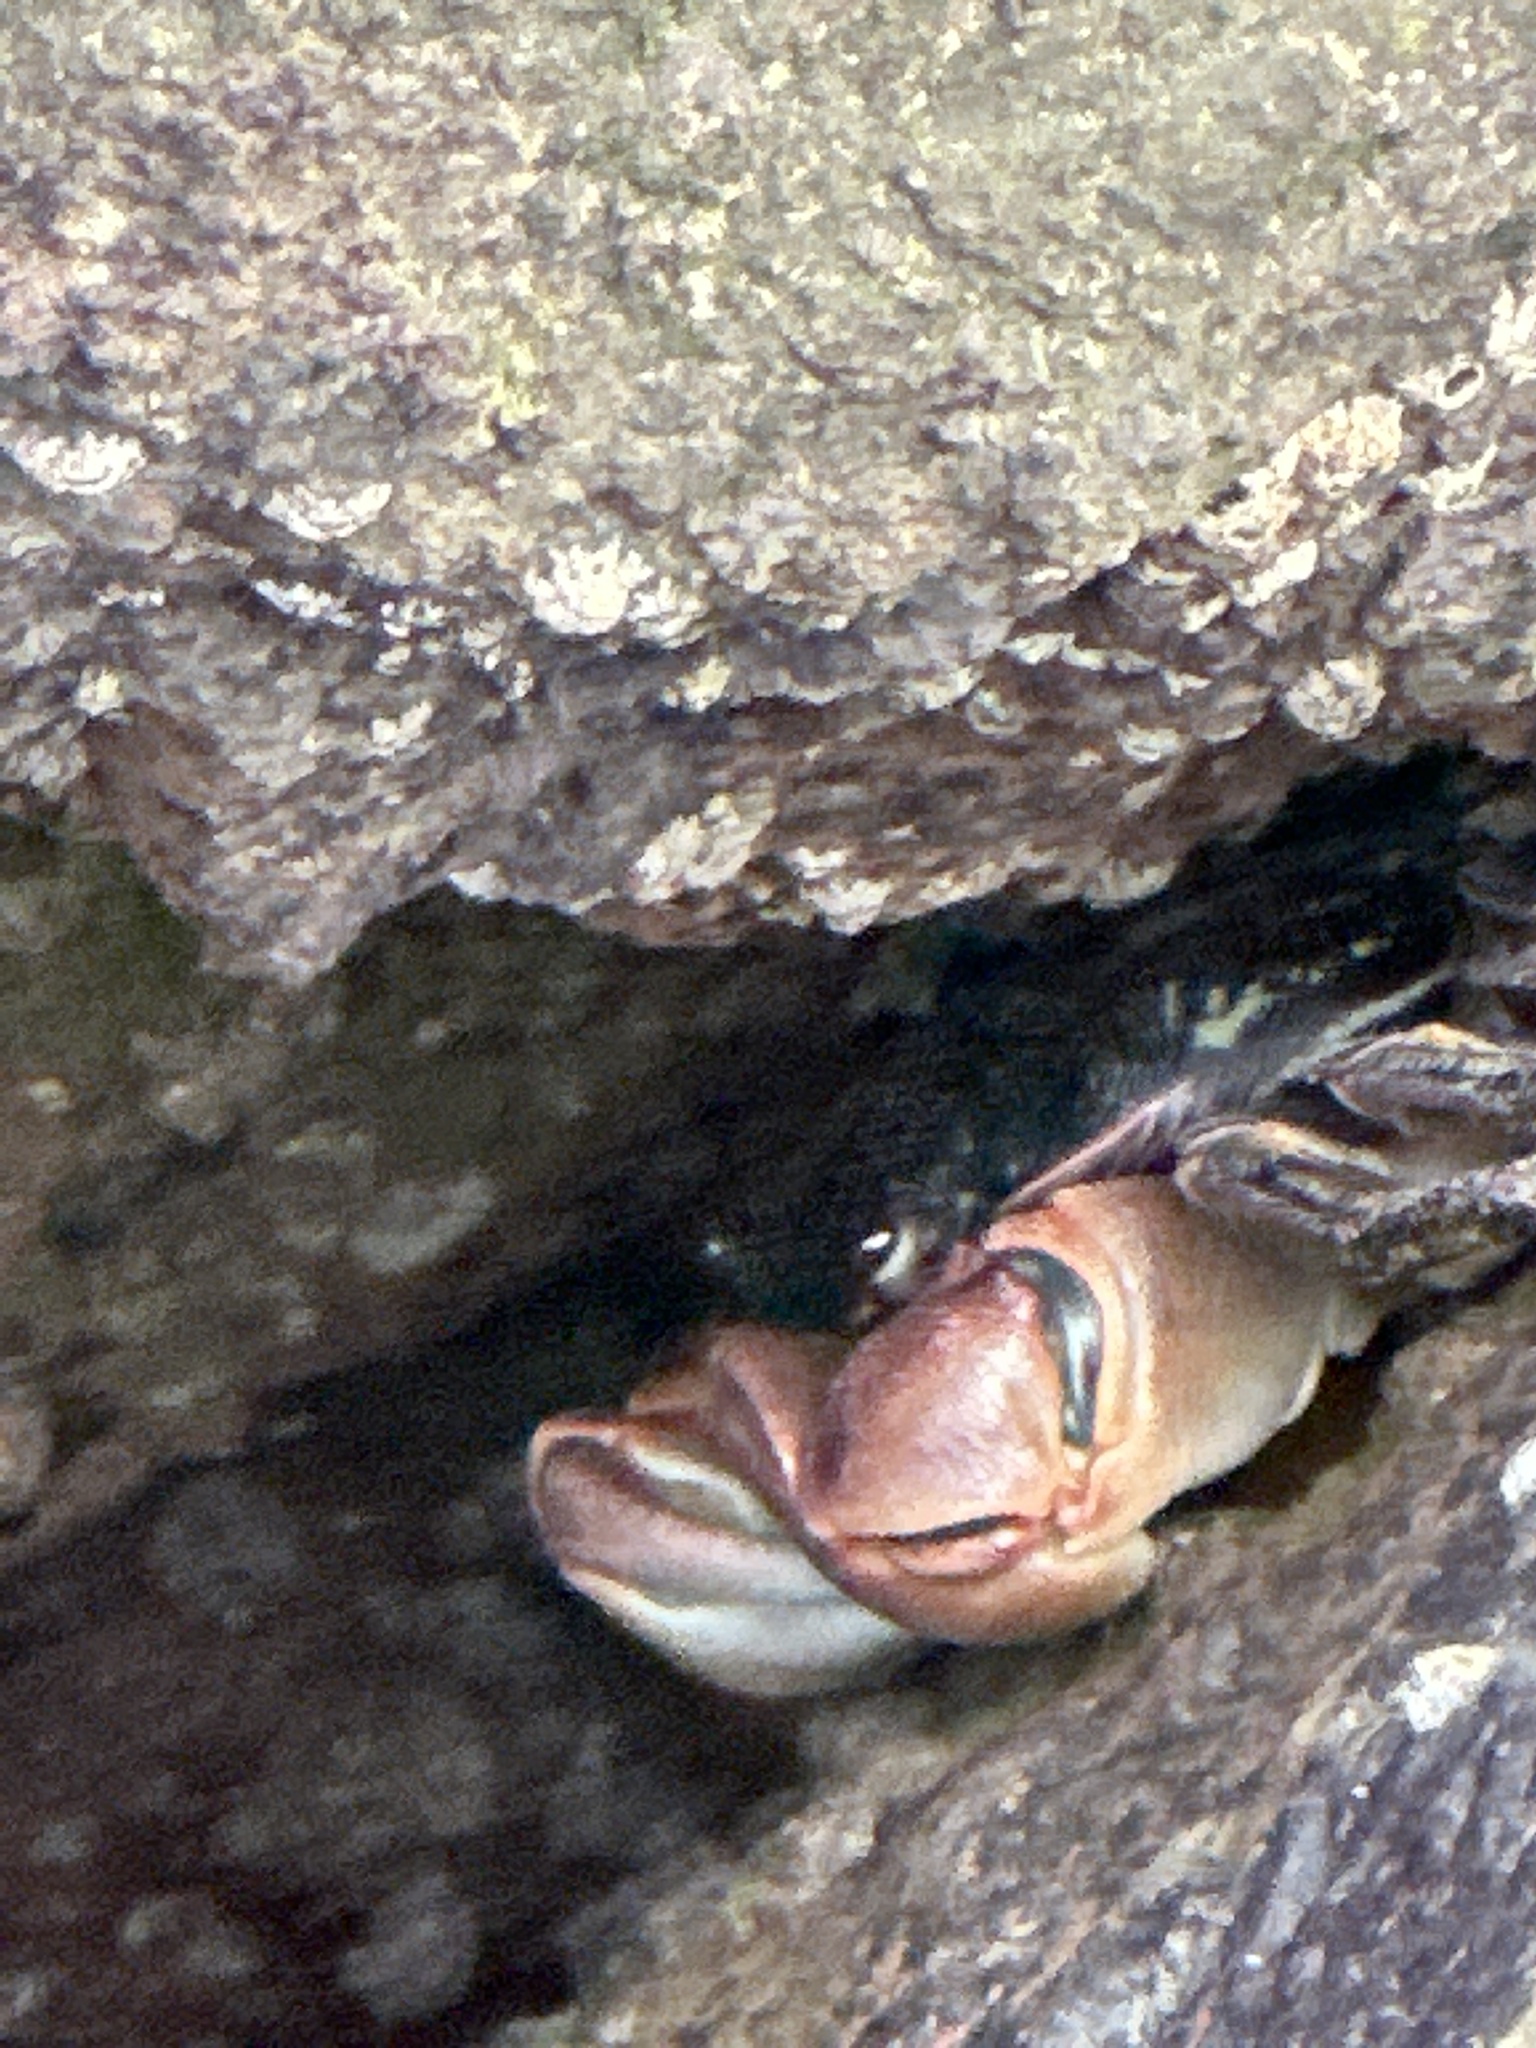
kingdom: Animalia
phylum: Arthropoda
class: Malacostraca
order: Decapoda
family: Grapsidae
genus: Pachygrapsus
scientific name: Pachygrapsus crassipes
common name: Striped shore crab
